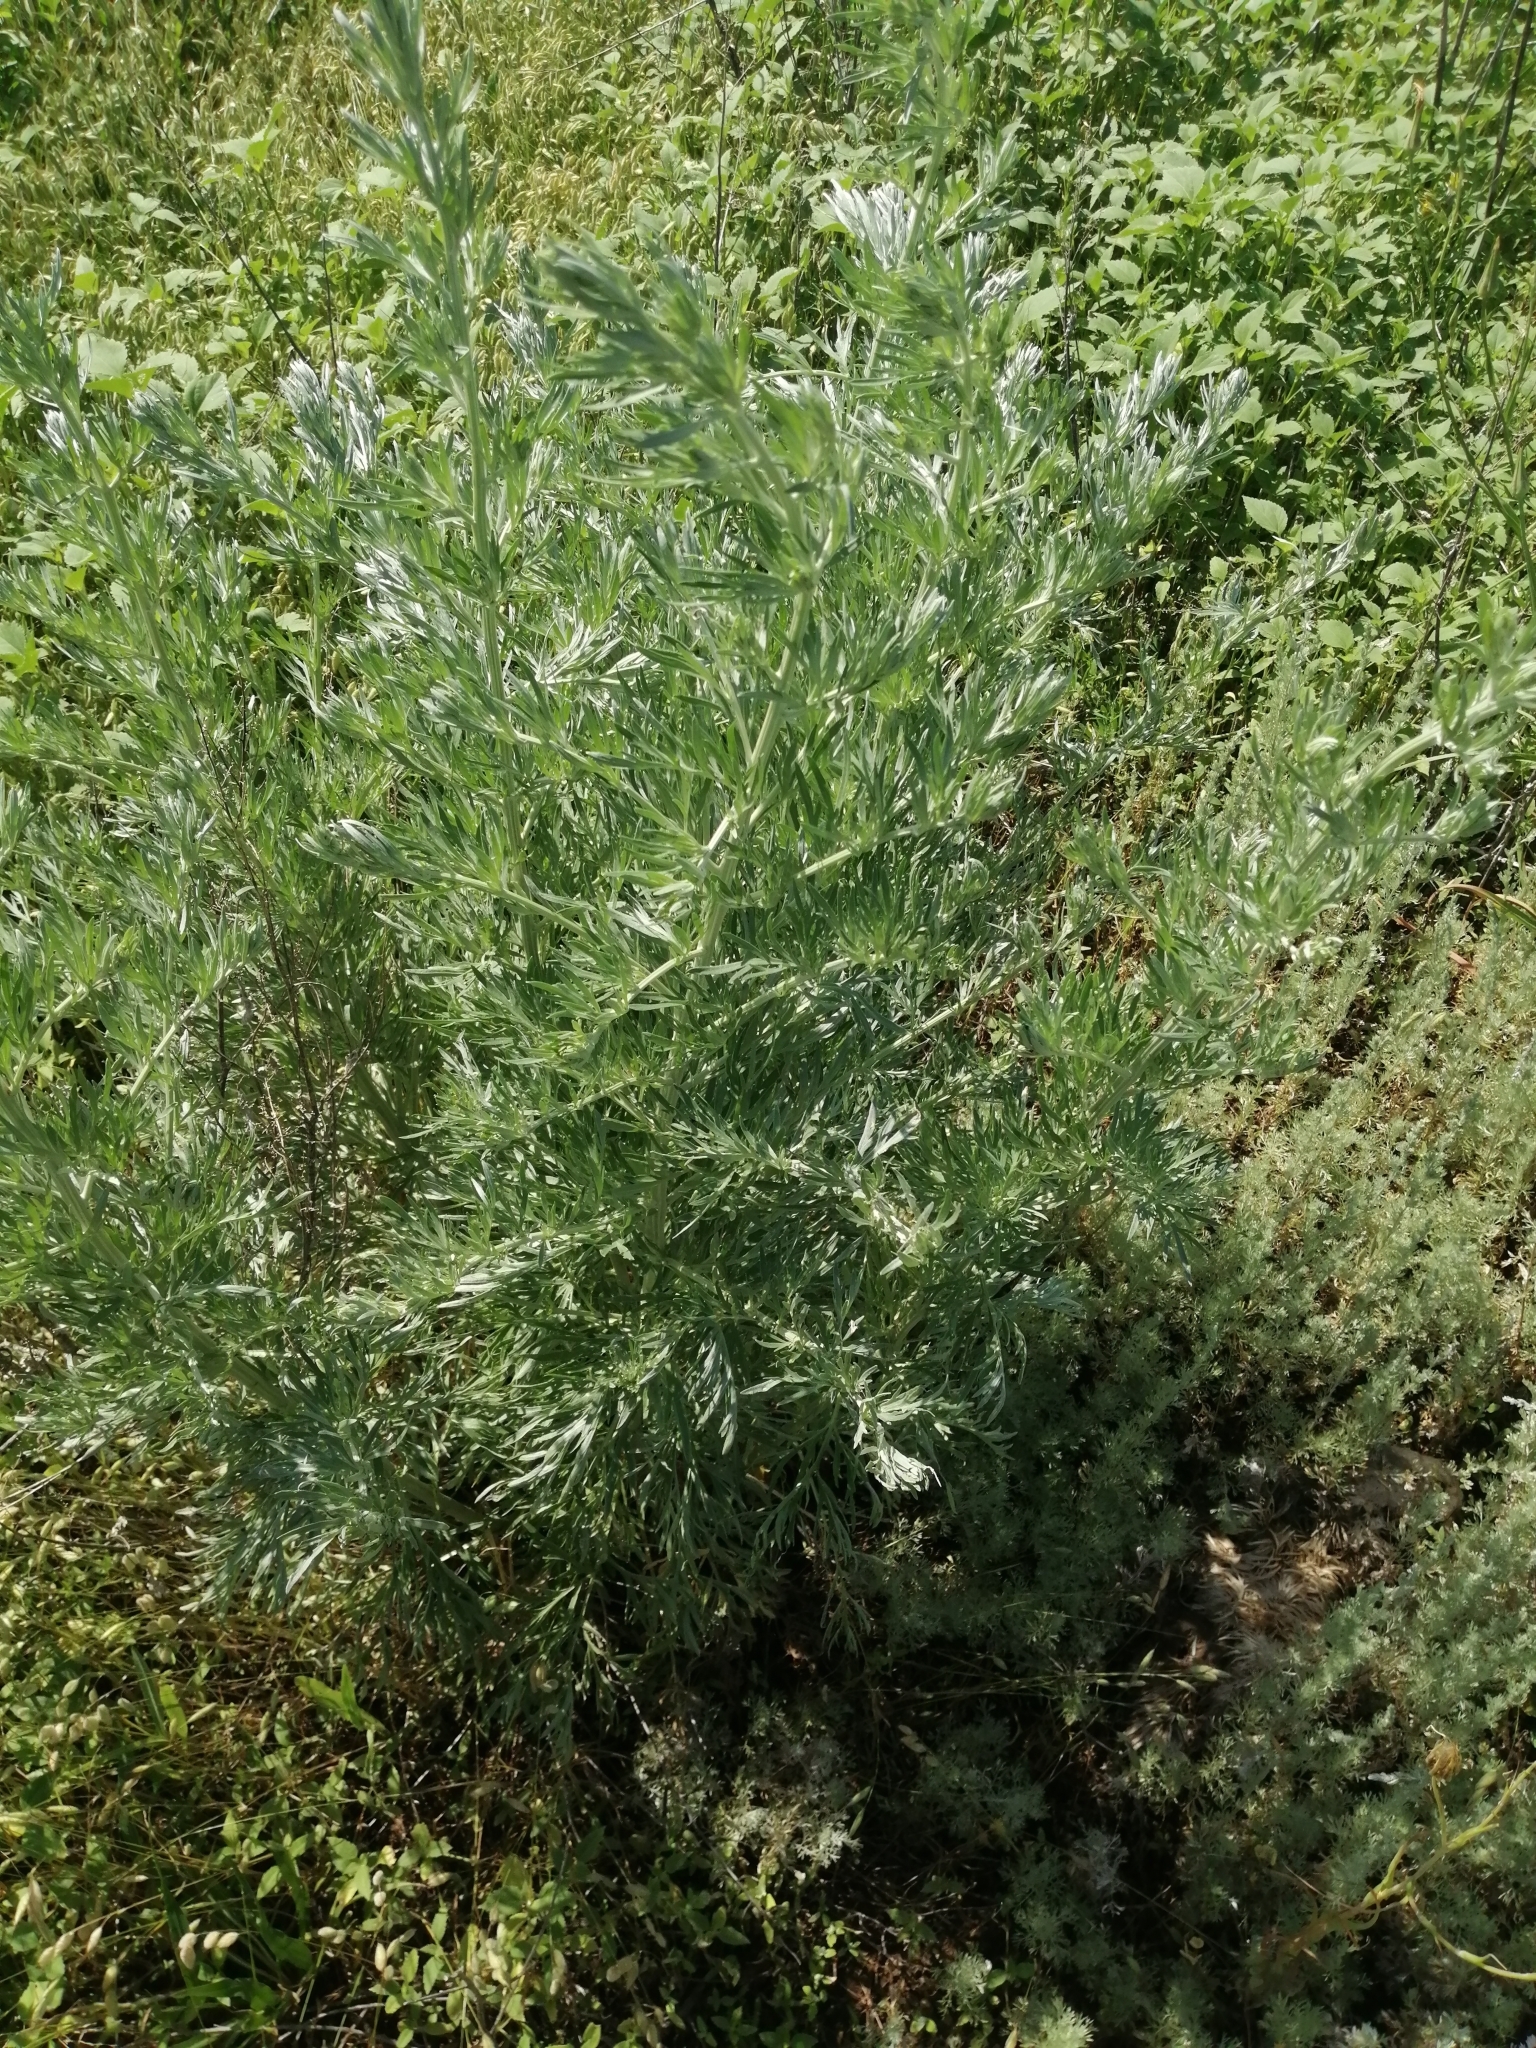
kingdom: Plantae
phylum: Tracheophyta
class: Magnoliopsida
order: Asterales
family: Asteraceae
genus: Artemisia
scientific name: Artemisia sieversiana
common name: Sieversian wormwood
